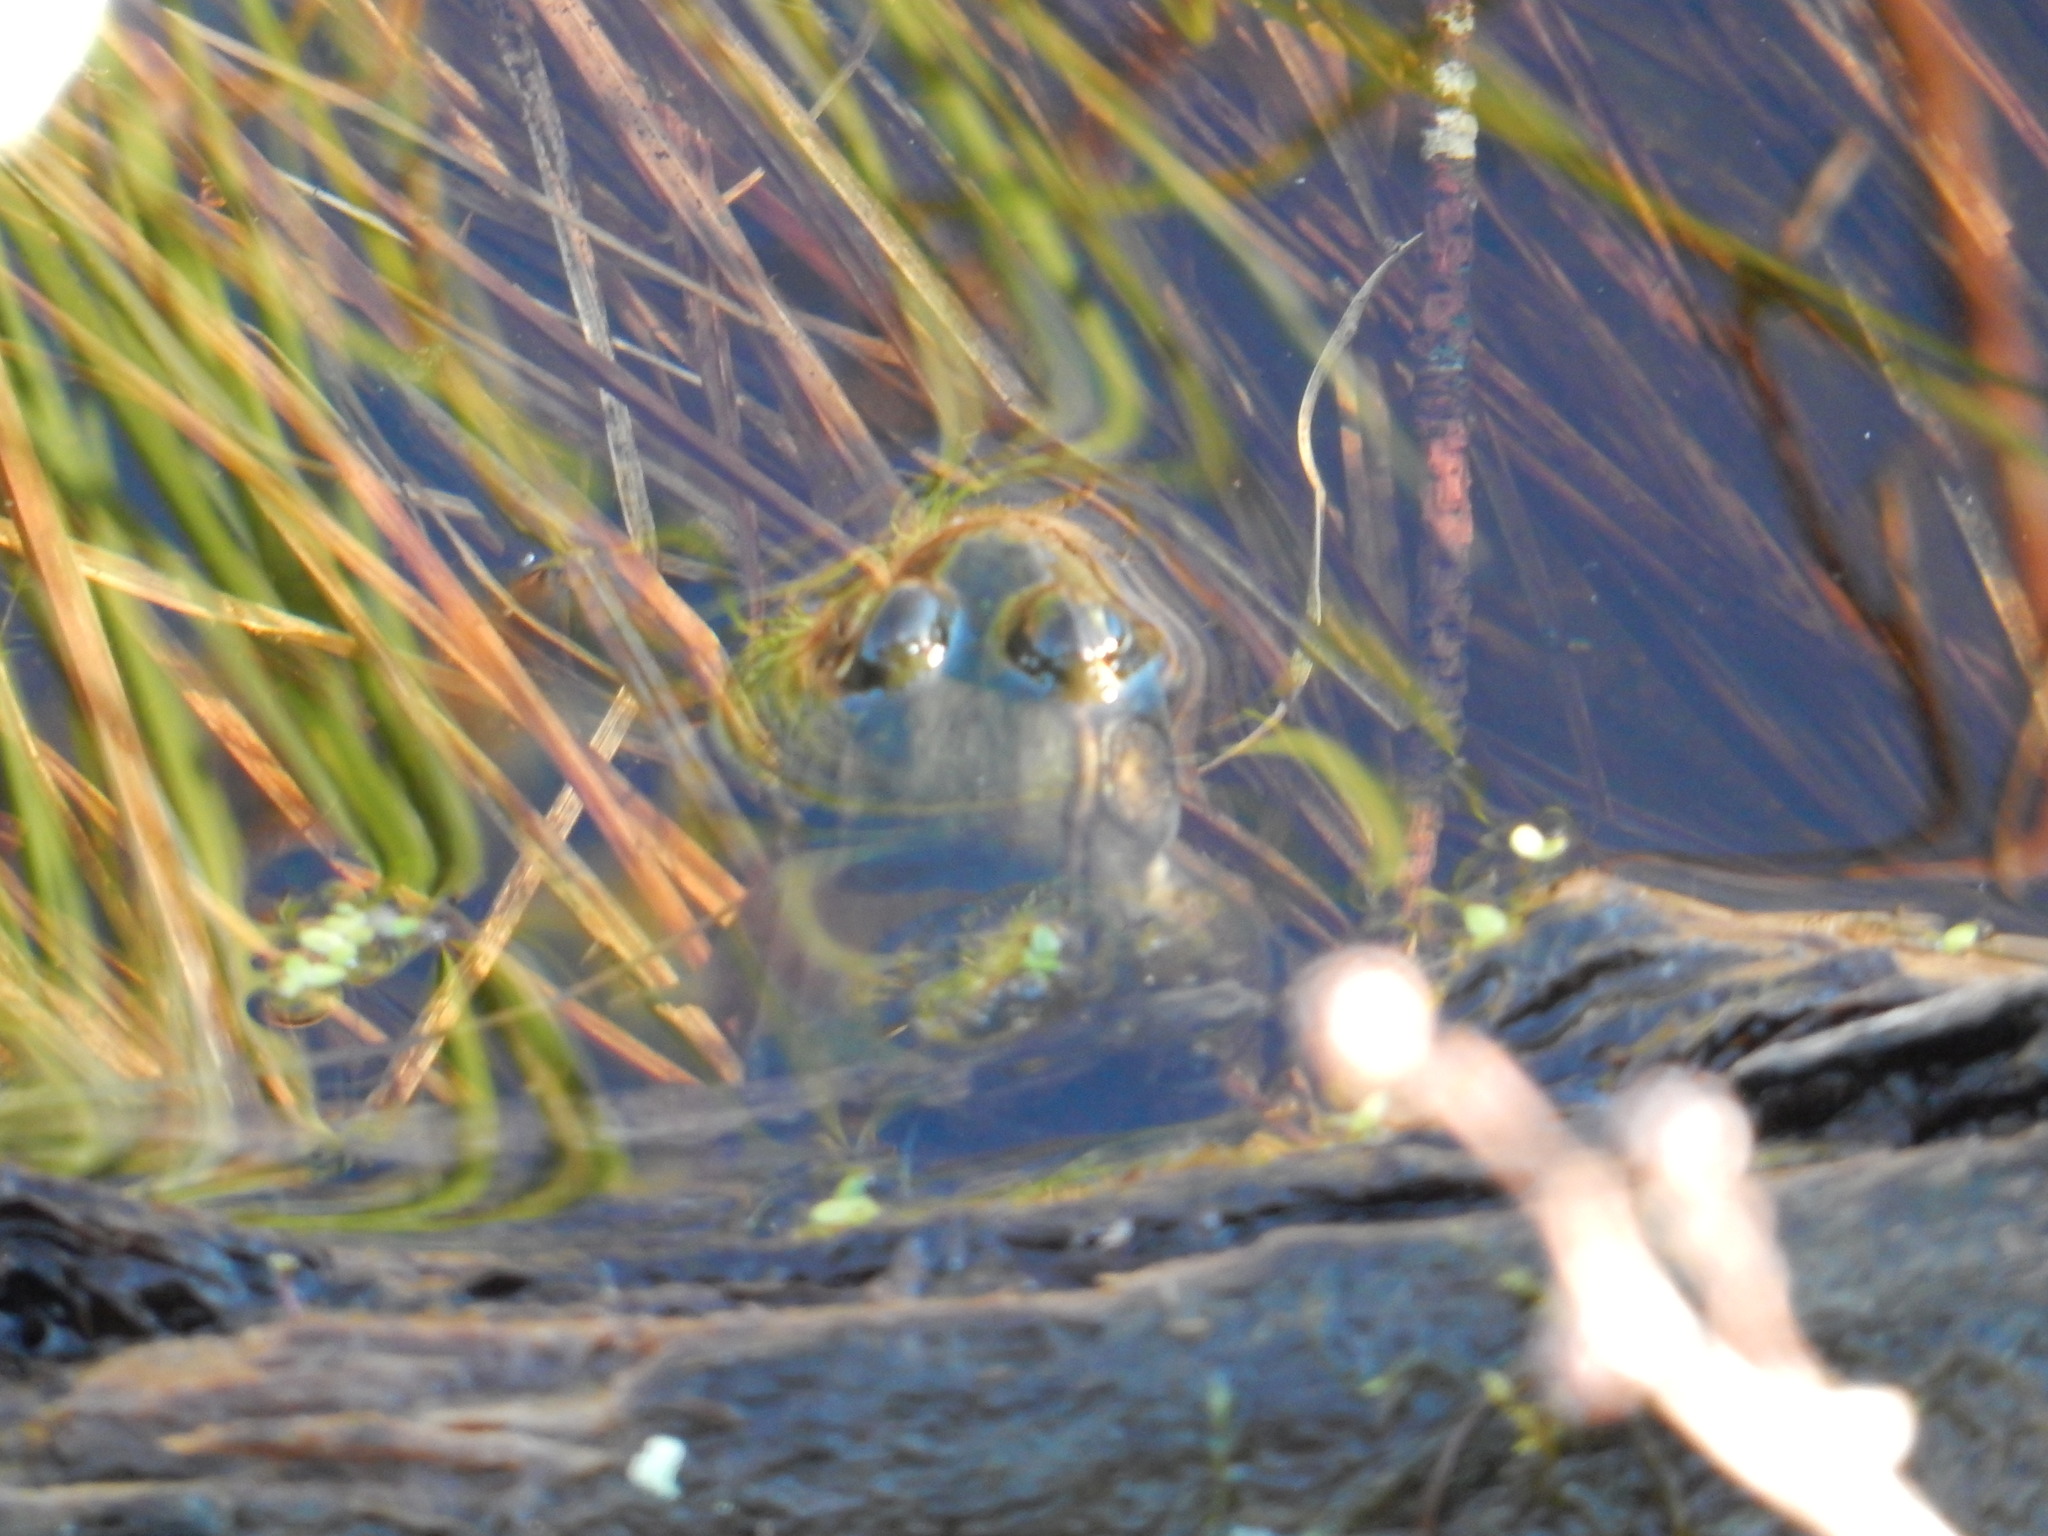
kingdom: Animalia
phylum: Chordata
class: Amphibia
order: Anura
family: Ranidae
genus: Lithobates
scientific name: Lithobates clamitans
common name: Green frog
